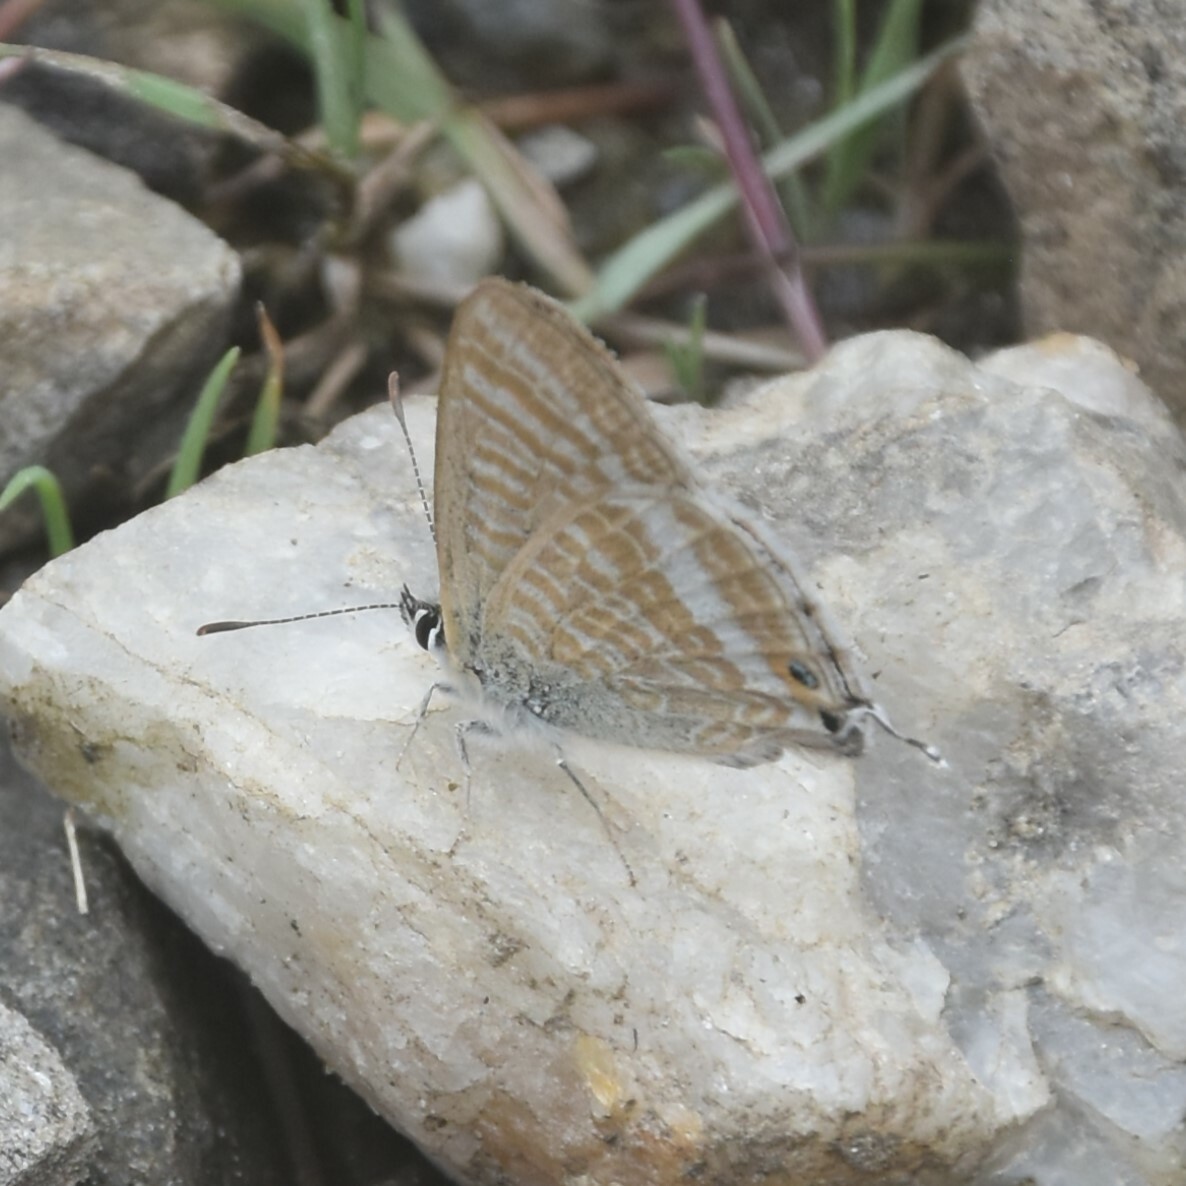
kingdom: Animalia
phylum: Arthropoda
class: Insecta
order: Lepidoptera
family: Lycaenidae
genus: Lampides
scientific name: Lampides boeticus
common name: Long-tailed blue
